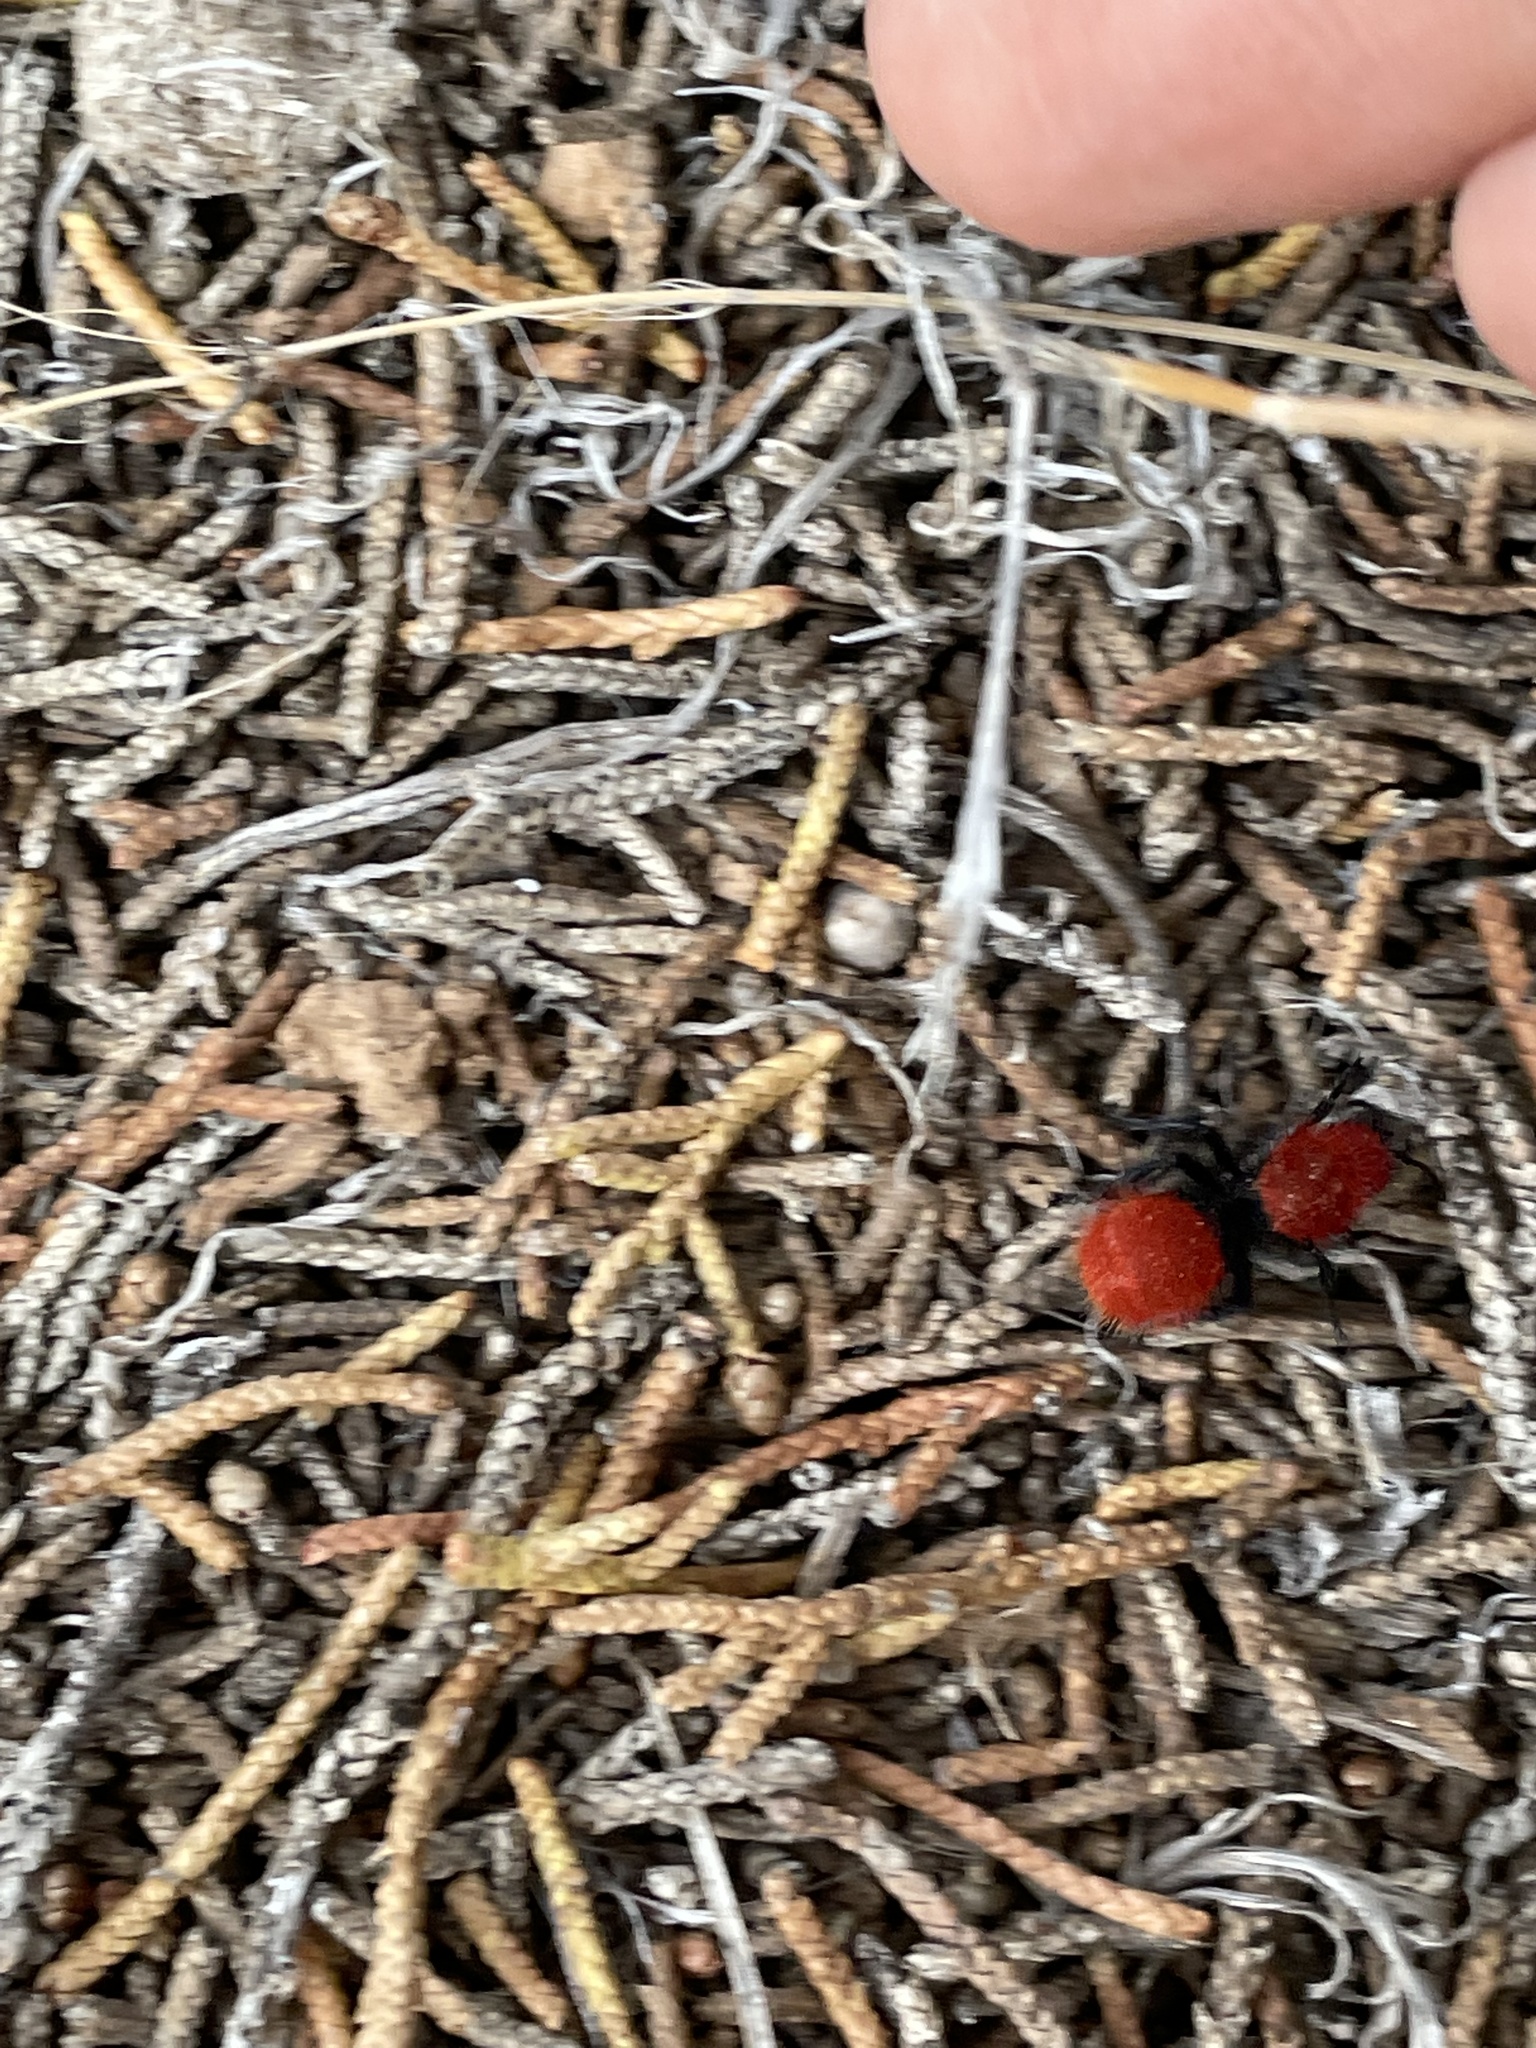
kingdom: Animalia
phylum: Arthropoda
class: Insecta
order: Hymenoptera
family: Mutillidae
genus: Dasymutilla
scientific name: Dasymutilla vestita
